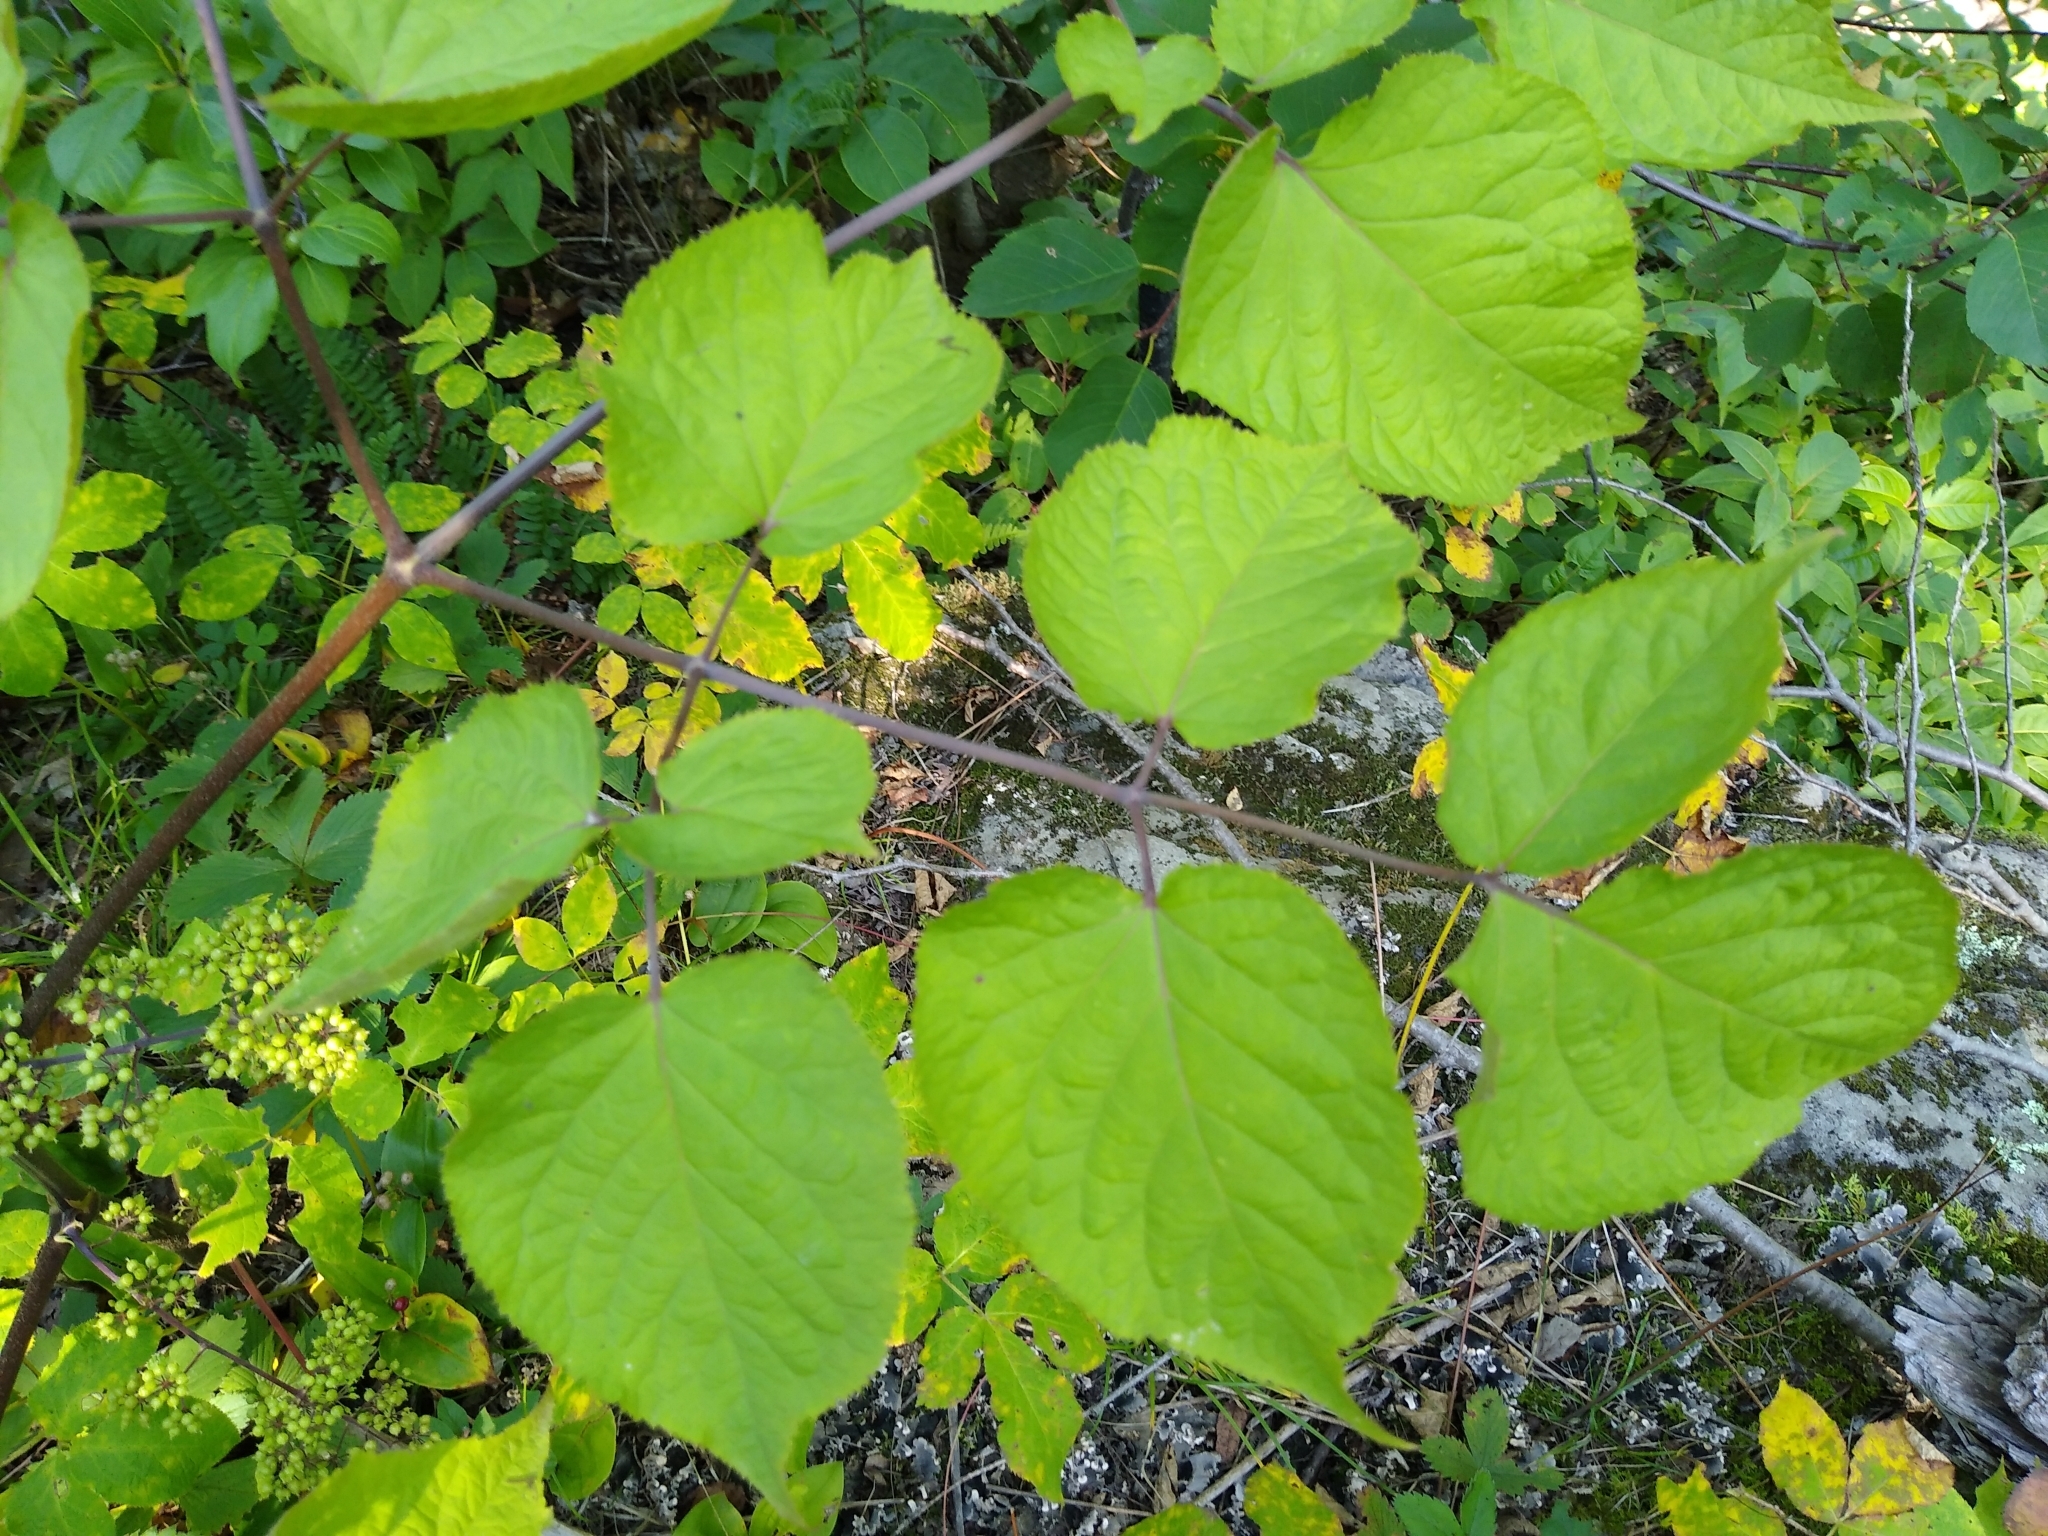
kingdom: Plantae
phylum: Tracheophyta
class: Magnoliopsida
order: Apiales
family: Araliaceae
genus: Aralia
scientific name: Aralia racemosa
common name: American-spikenard
